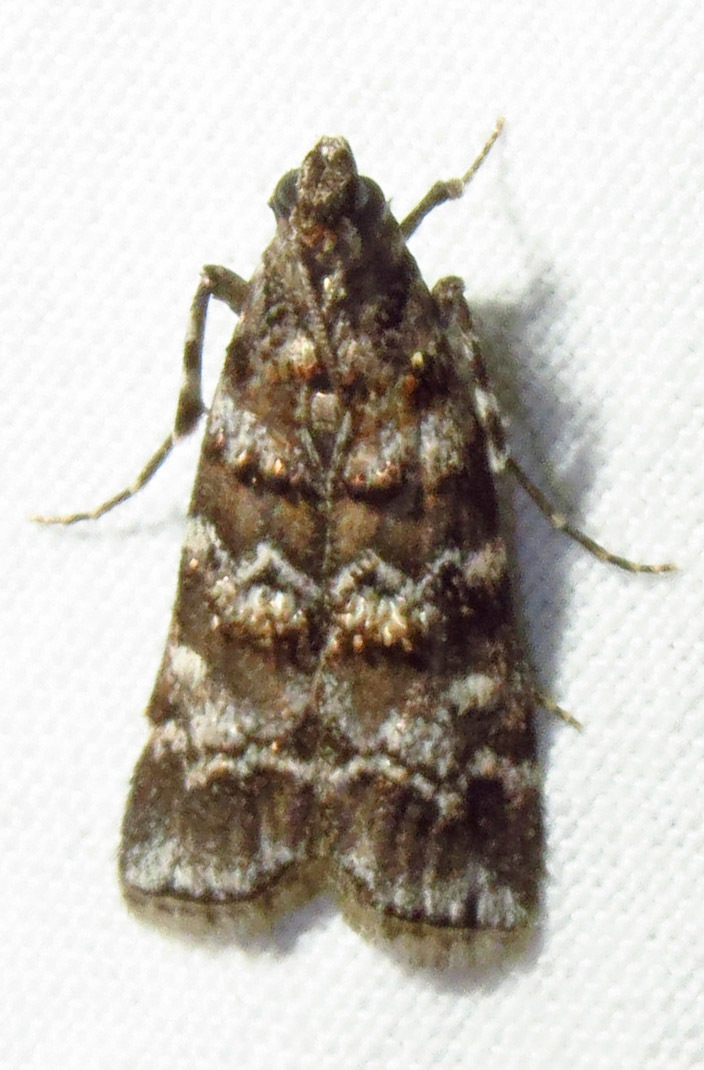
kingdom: Animalia
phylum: Arthropoda
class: Insecta
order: Lepidoptera
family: Pyralidae
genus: Dioryctria
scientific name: Dioryctria amatella
